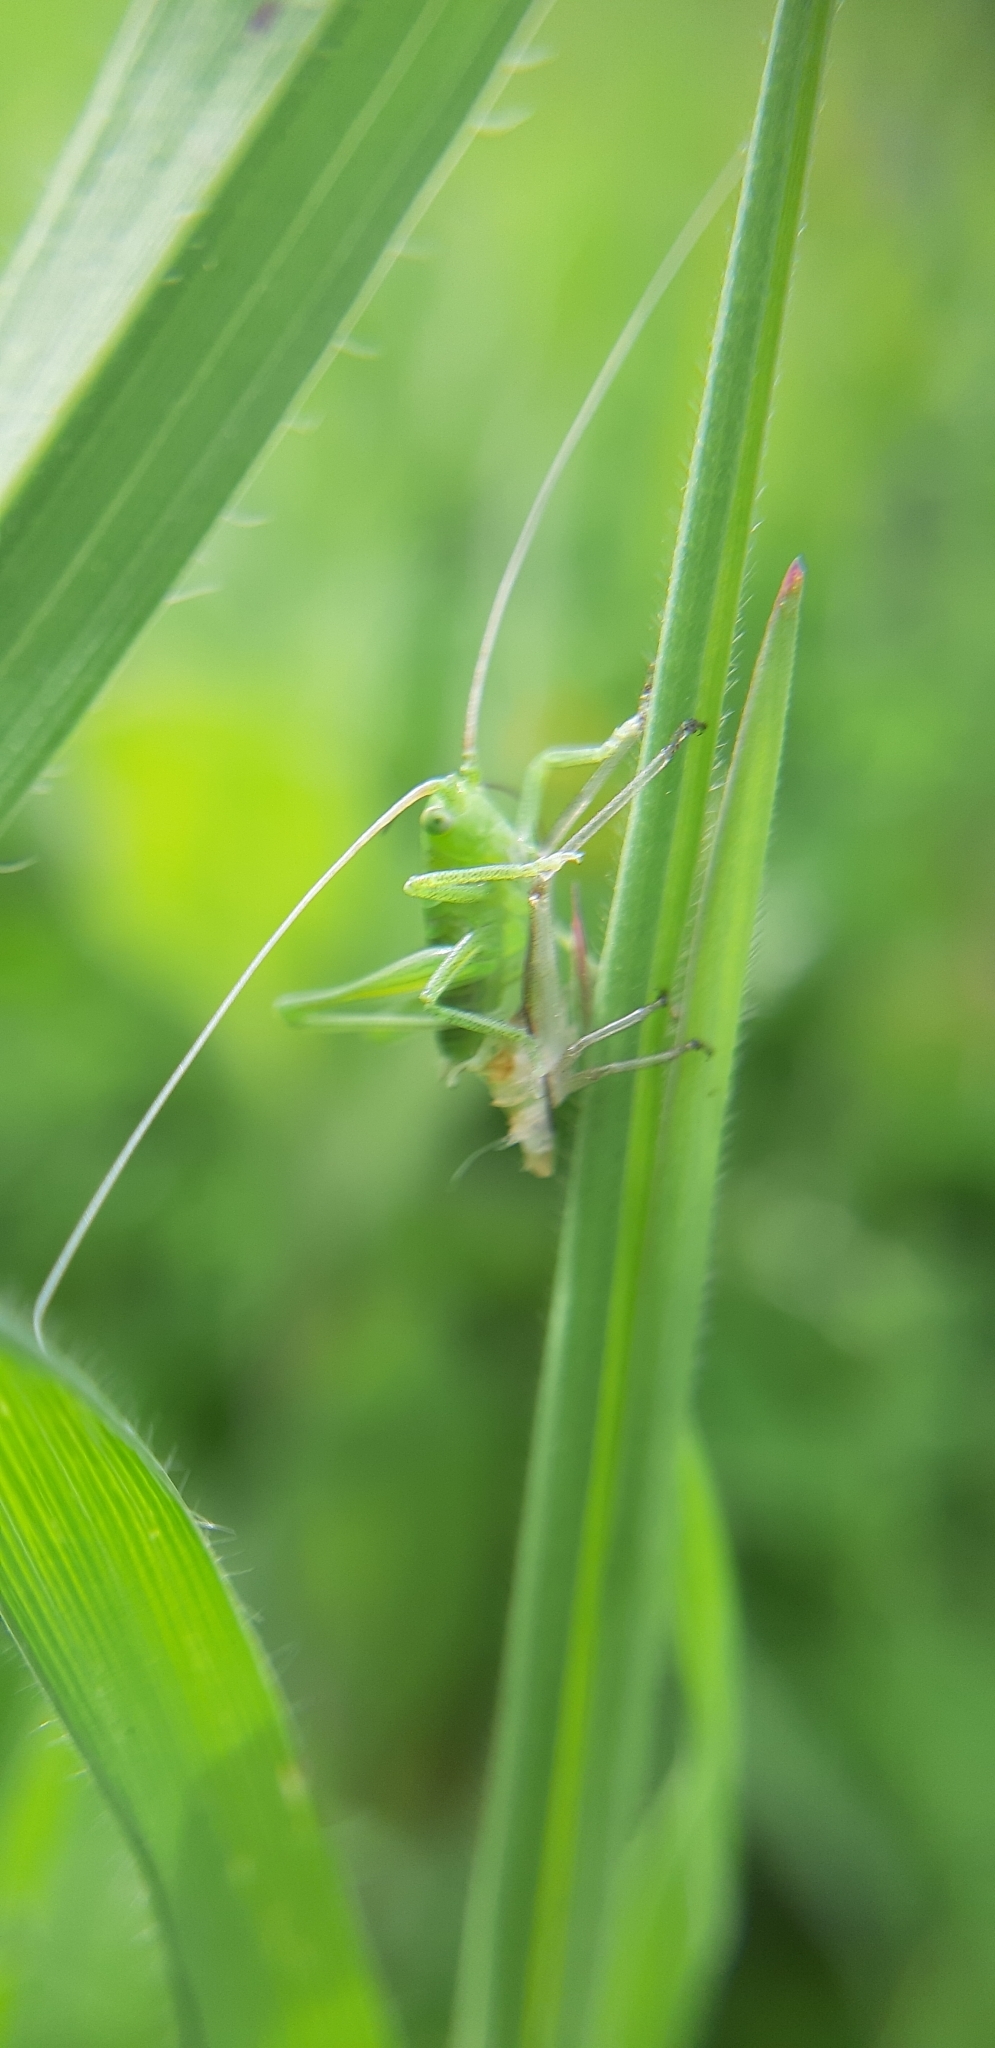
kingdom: Animalia
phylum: Arthropoda
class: Insecta
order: Orthoptera
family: Tettigoniidae
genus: Tettigonia
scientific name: Tettigonia viridissima
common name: Great green bush-cricket
